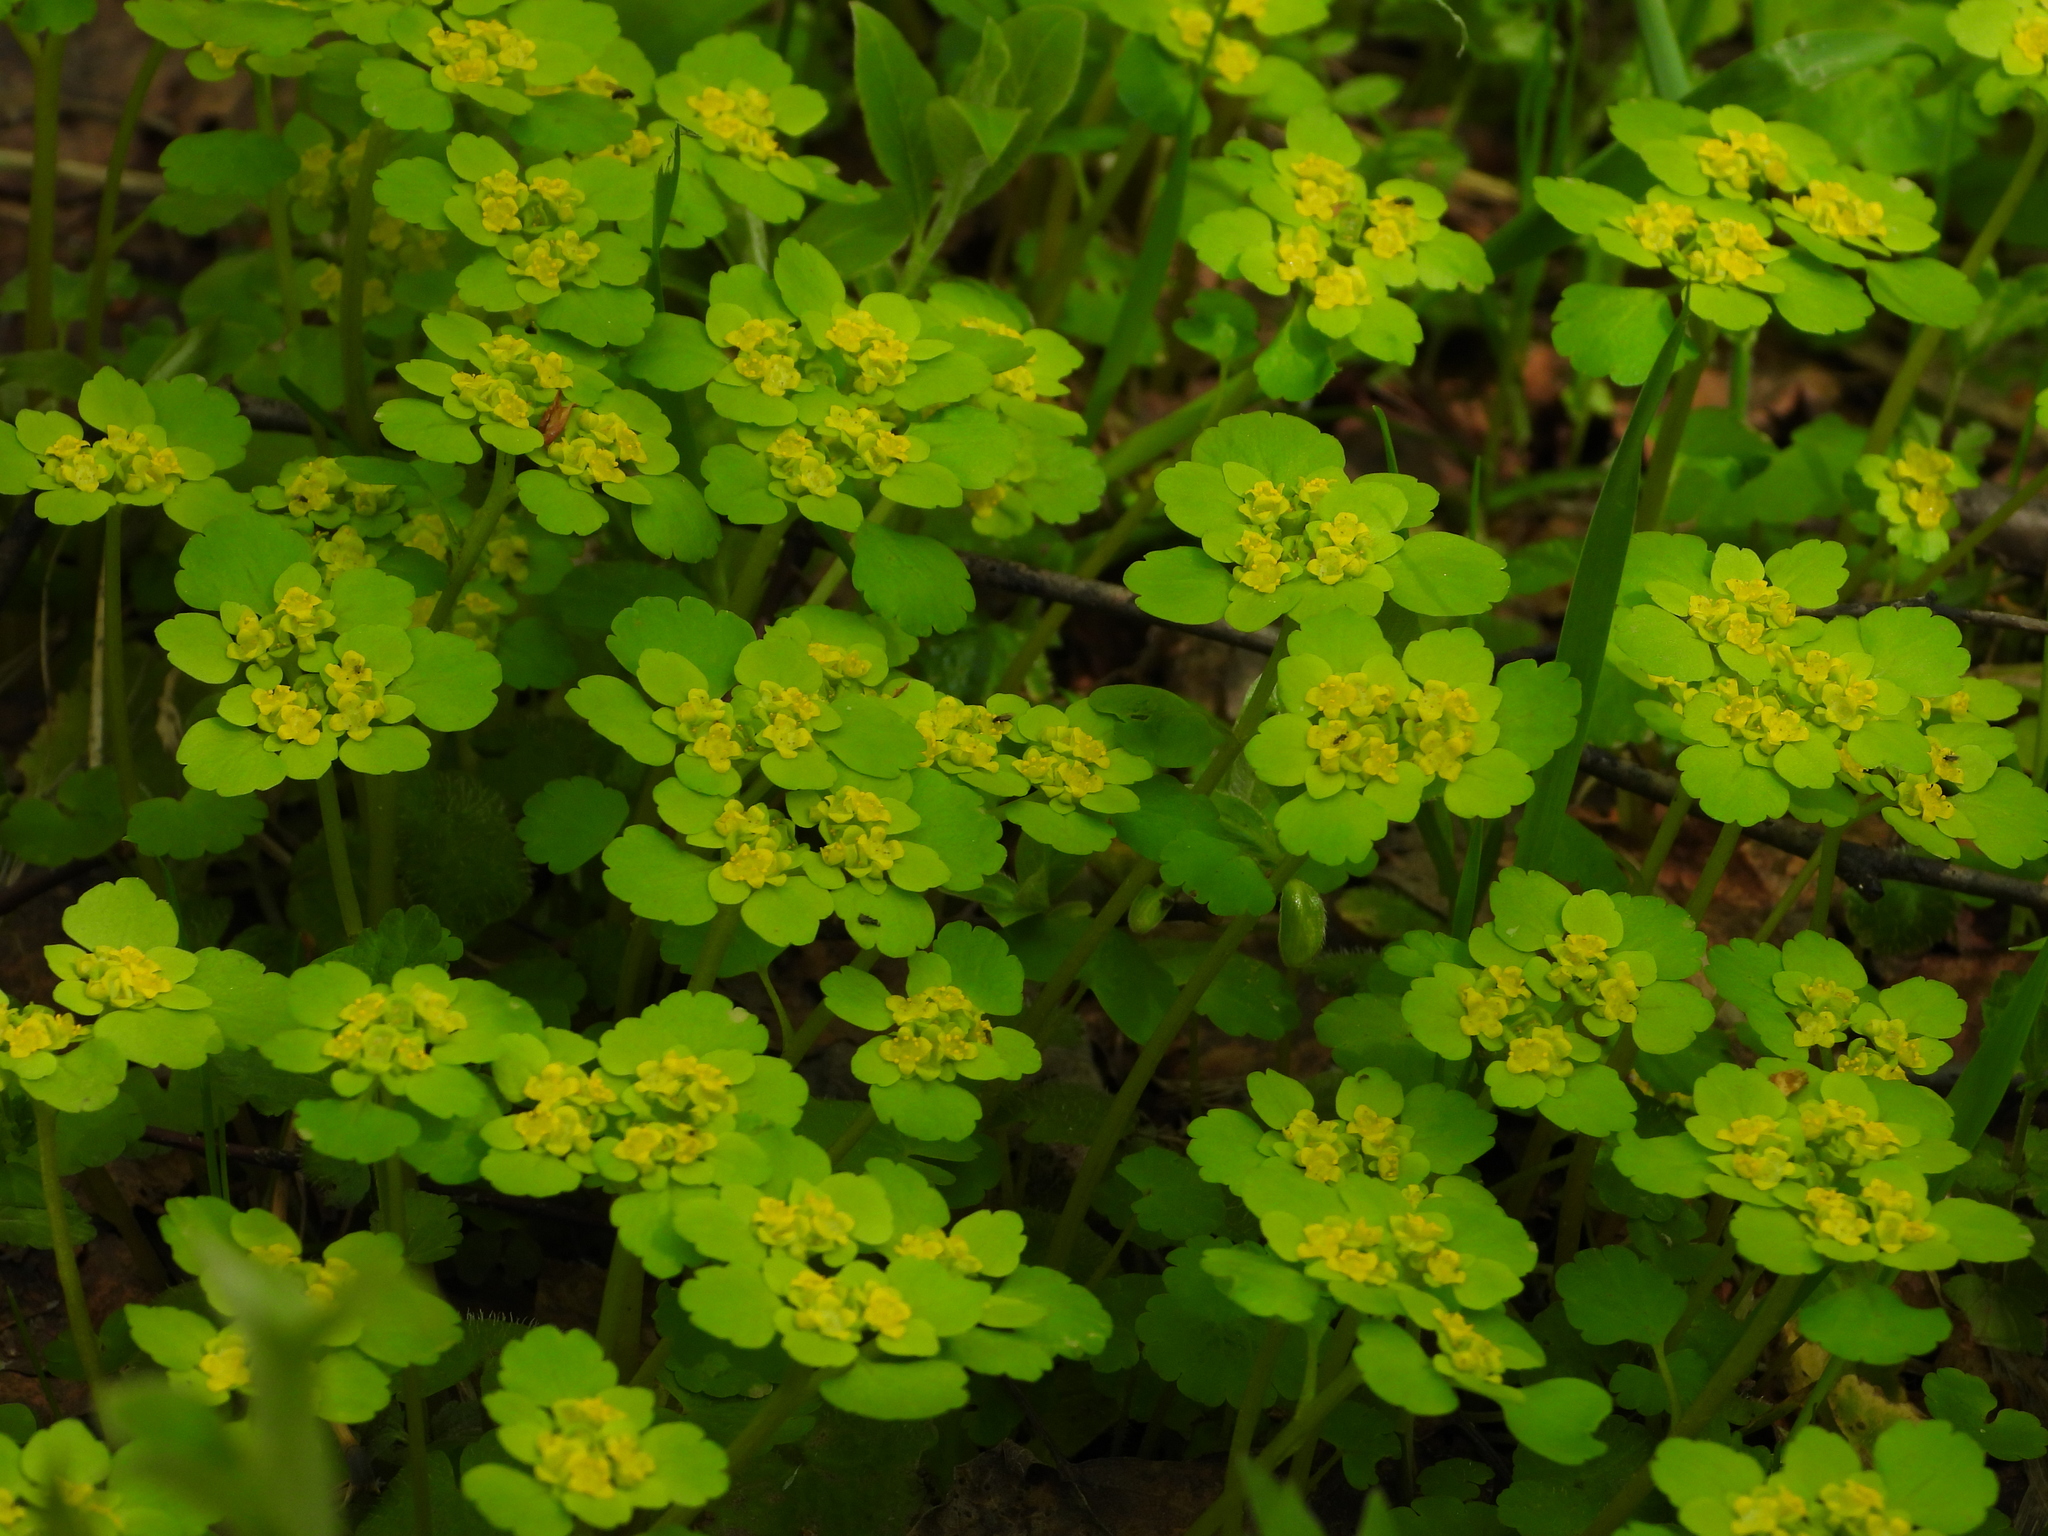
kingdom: Plantae
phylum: Tracheophyta
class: Magnoliopsida
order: Saxifragales
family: Saxifragaceae
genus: Chrysosplenium
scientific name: Chrysosplenium alternifolium
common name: Alternate-leaved golden-saxifrage
